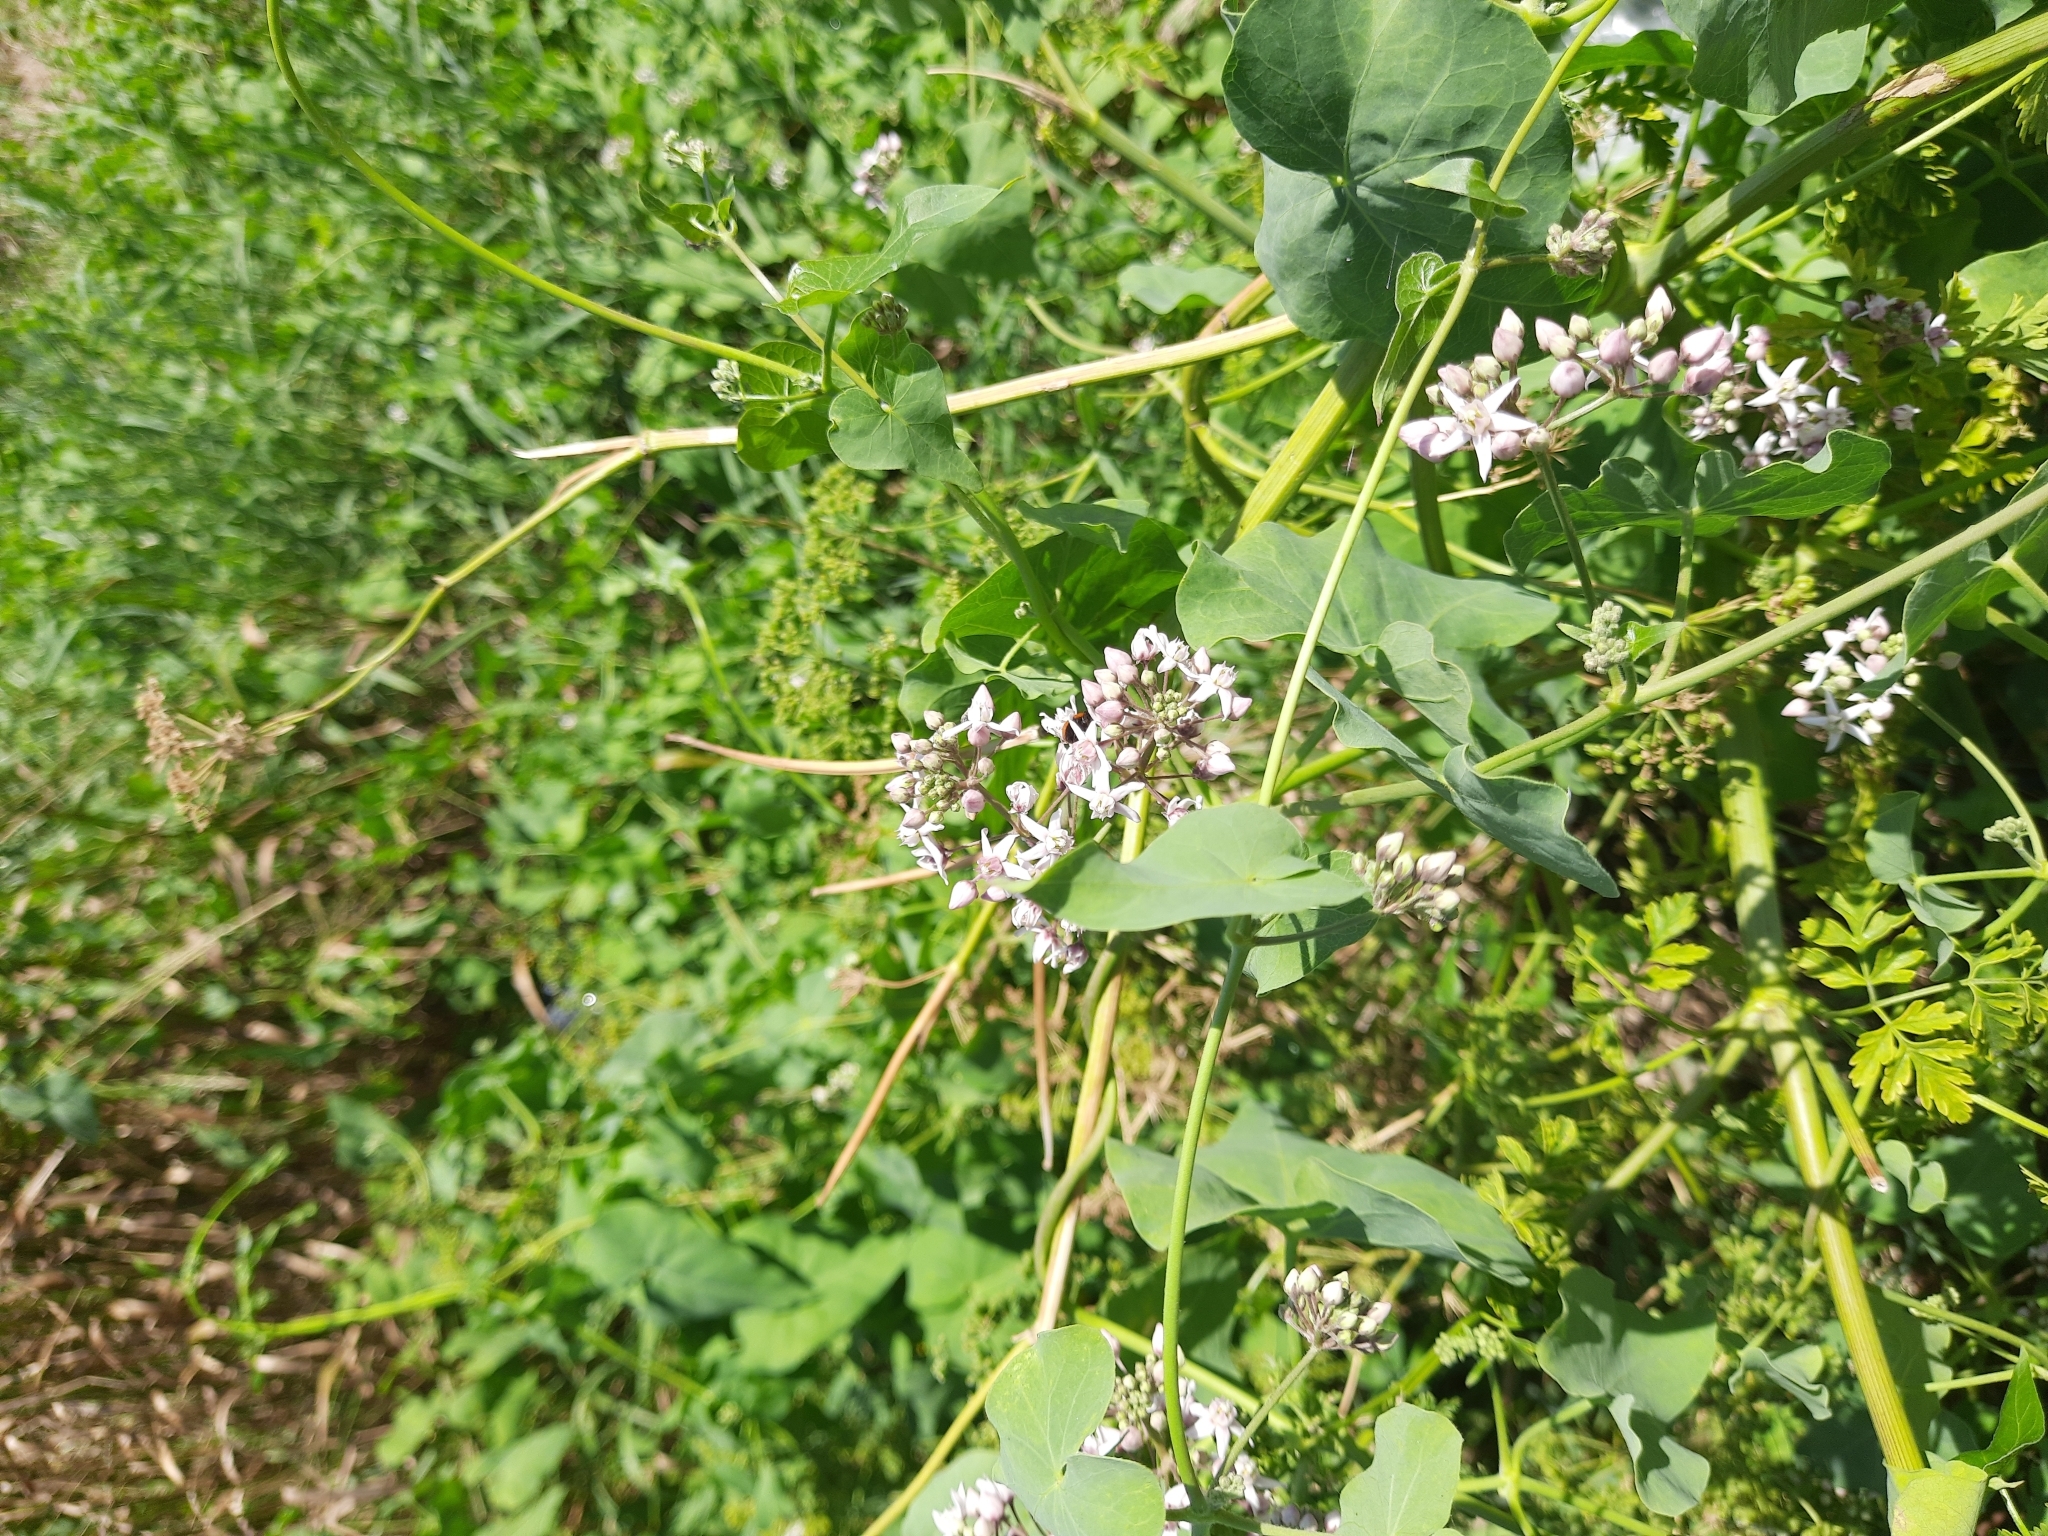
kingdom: Plantae
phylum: Tracheophyta
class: Magnoliopsida
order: Gentianales
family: Apocynaceae
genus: Cynanchum
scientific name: Cynanchum acutum
